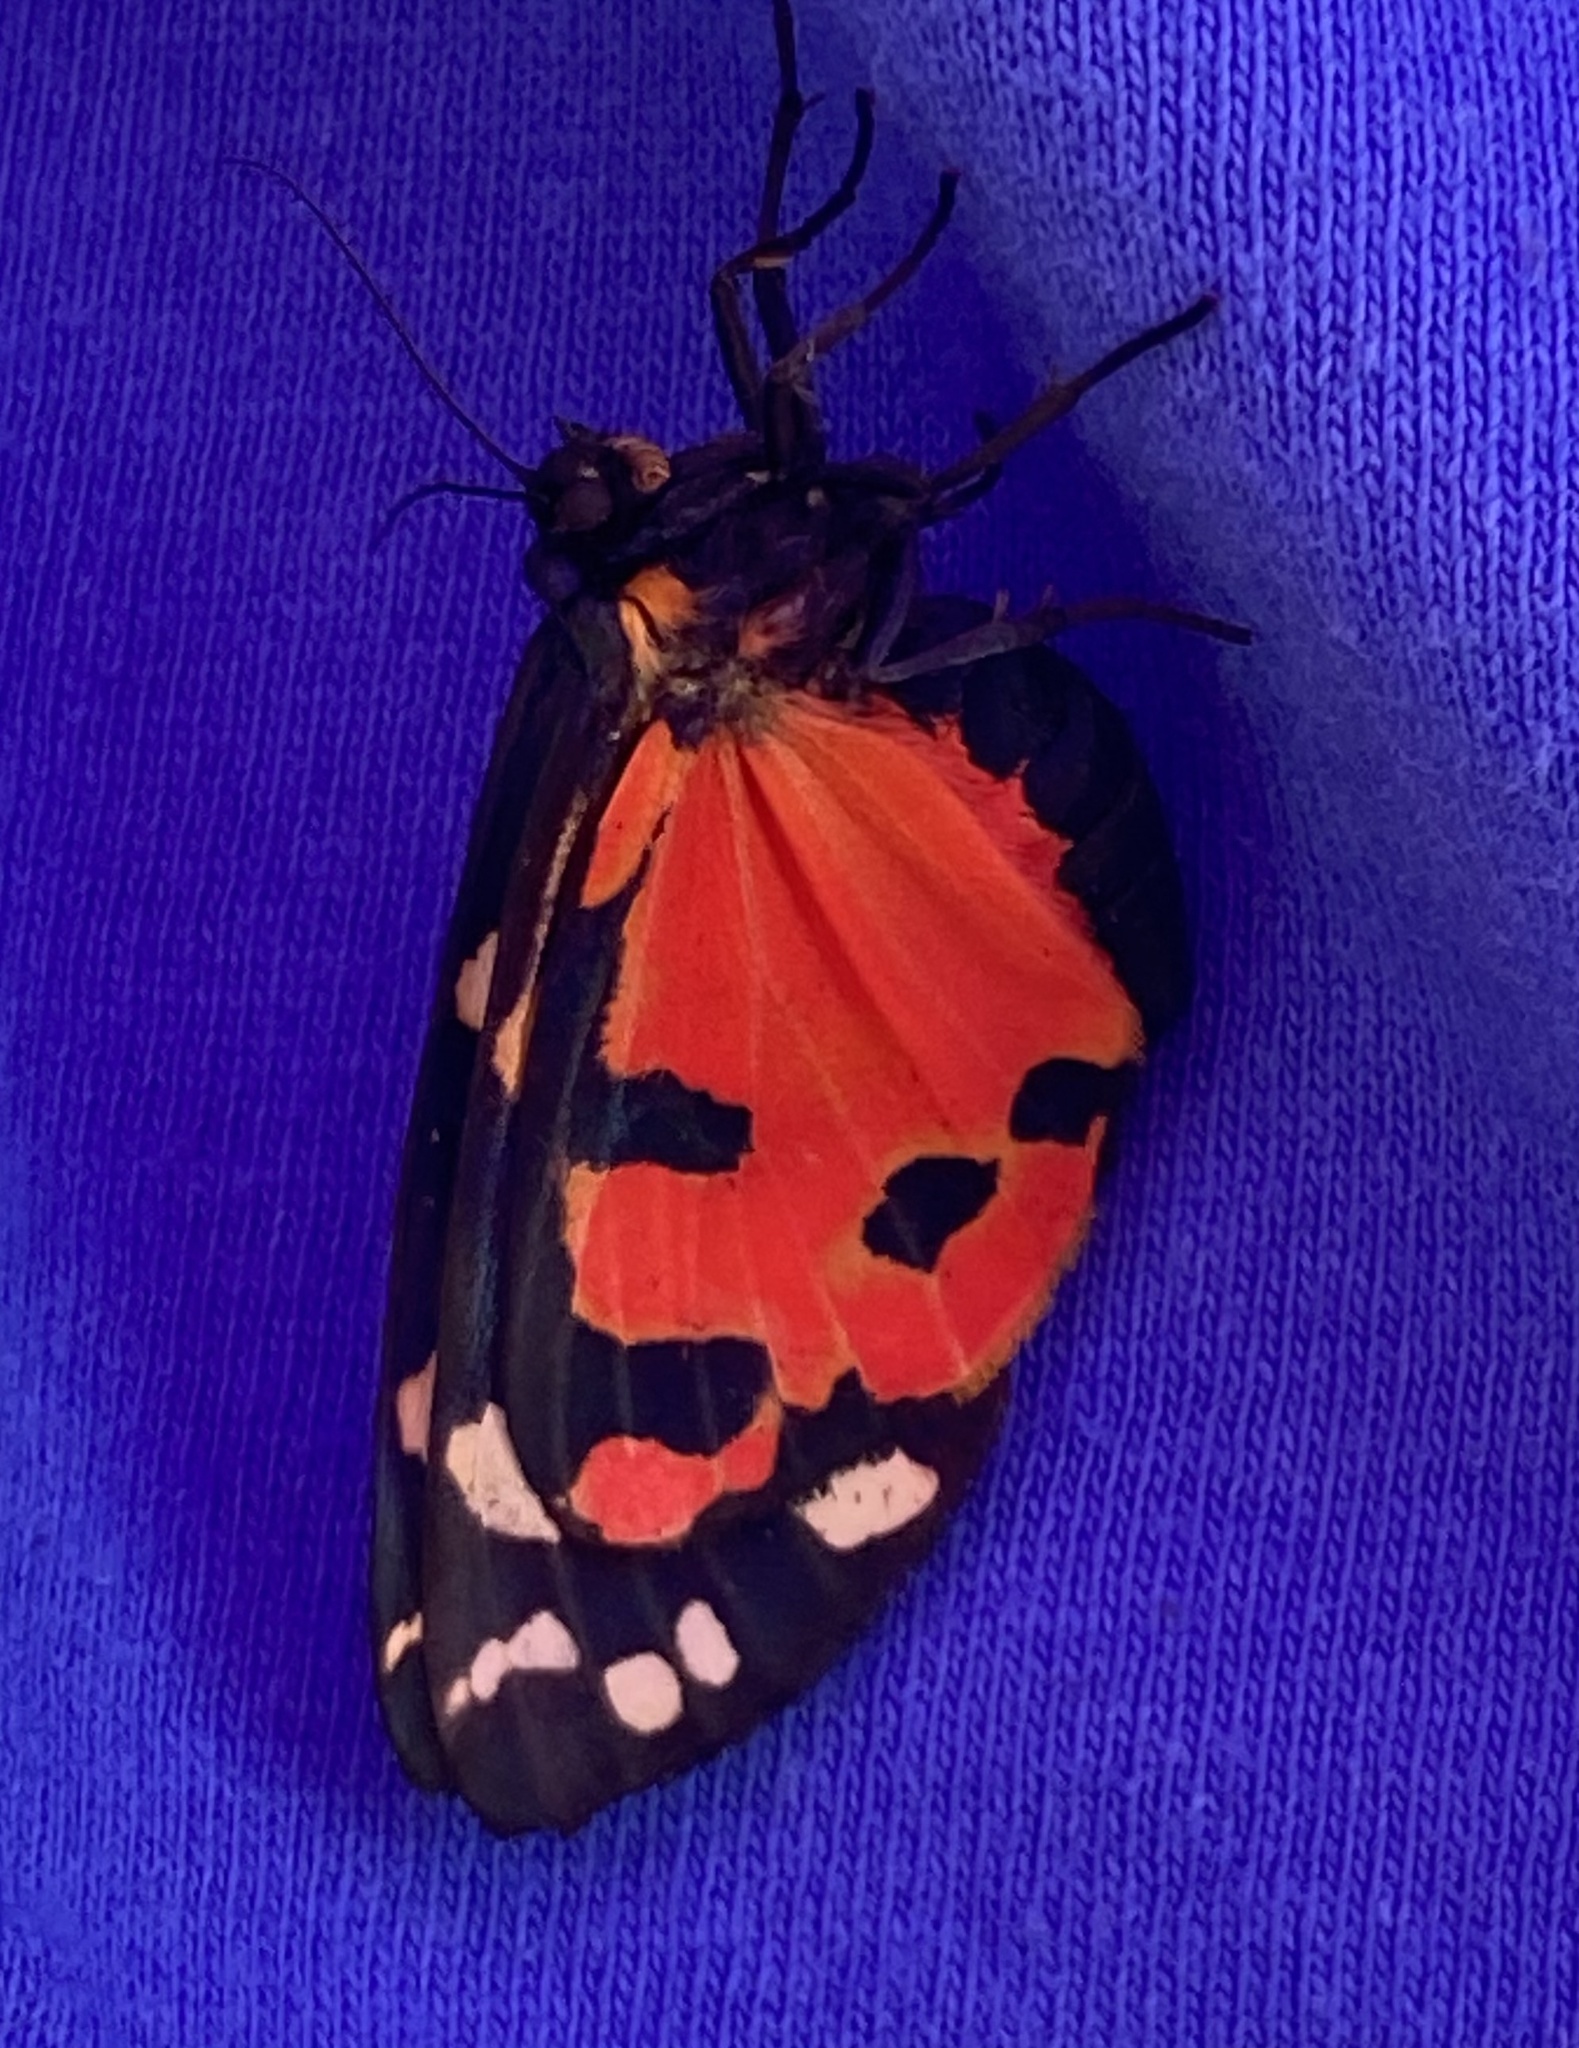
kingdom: Animalia
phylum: Arthropoda
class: Insecta
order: Lepidoptera
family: Erebidae
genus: Callimorpha
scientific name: Callimorpha dominula
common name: Scarlet tiger
